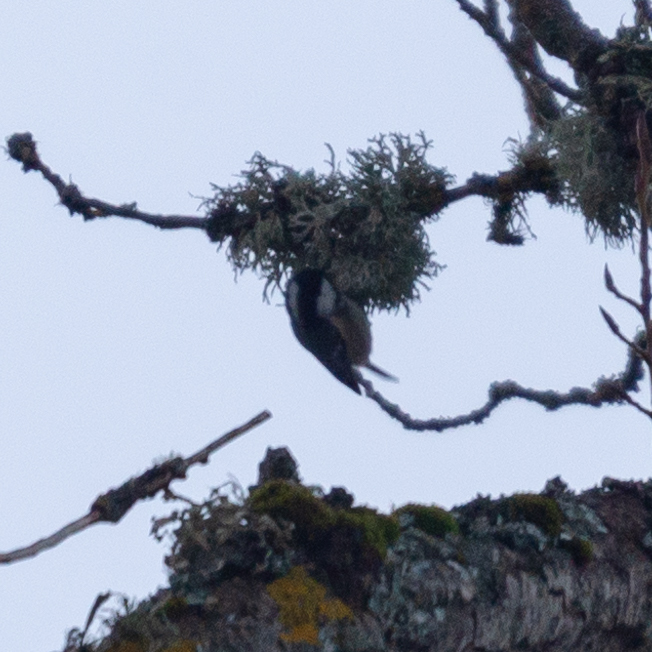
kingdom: Animalia
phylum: Chordata
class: Aves
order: Passeriformes
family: Paridae
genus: Periparus
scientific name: Periparus ater
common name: Coal tit
